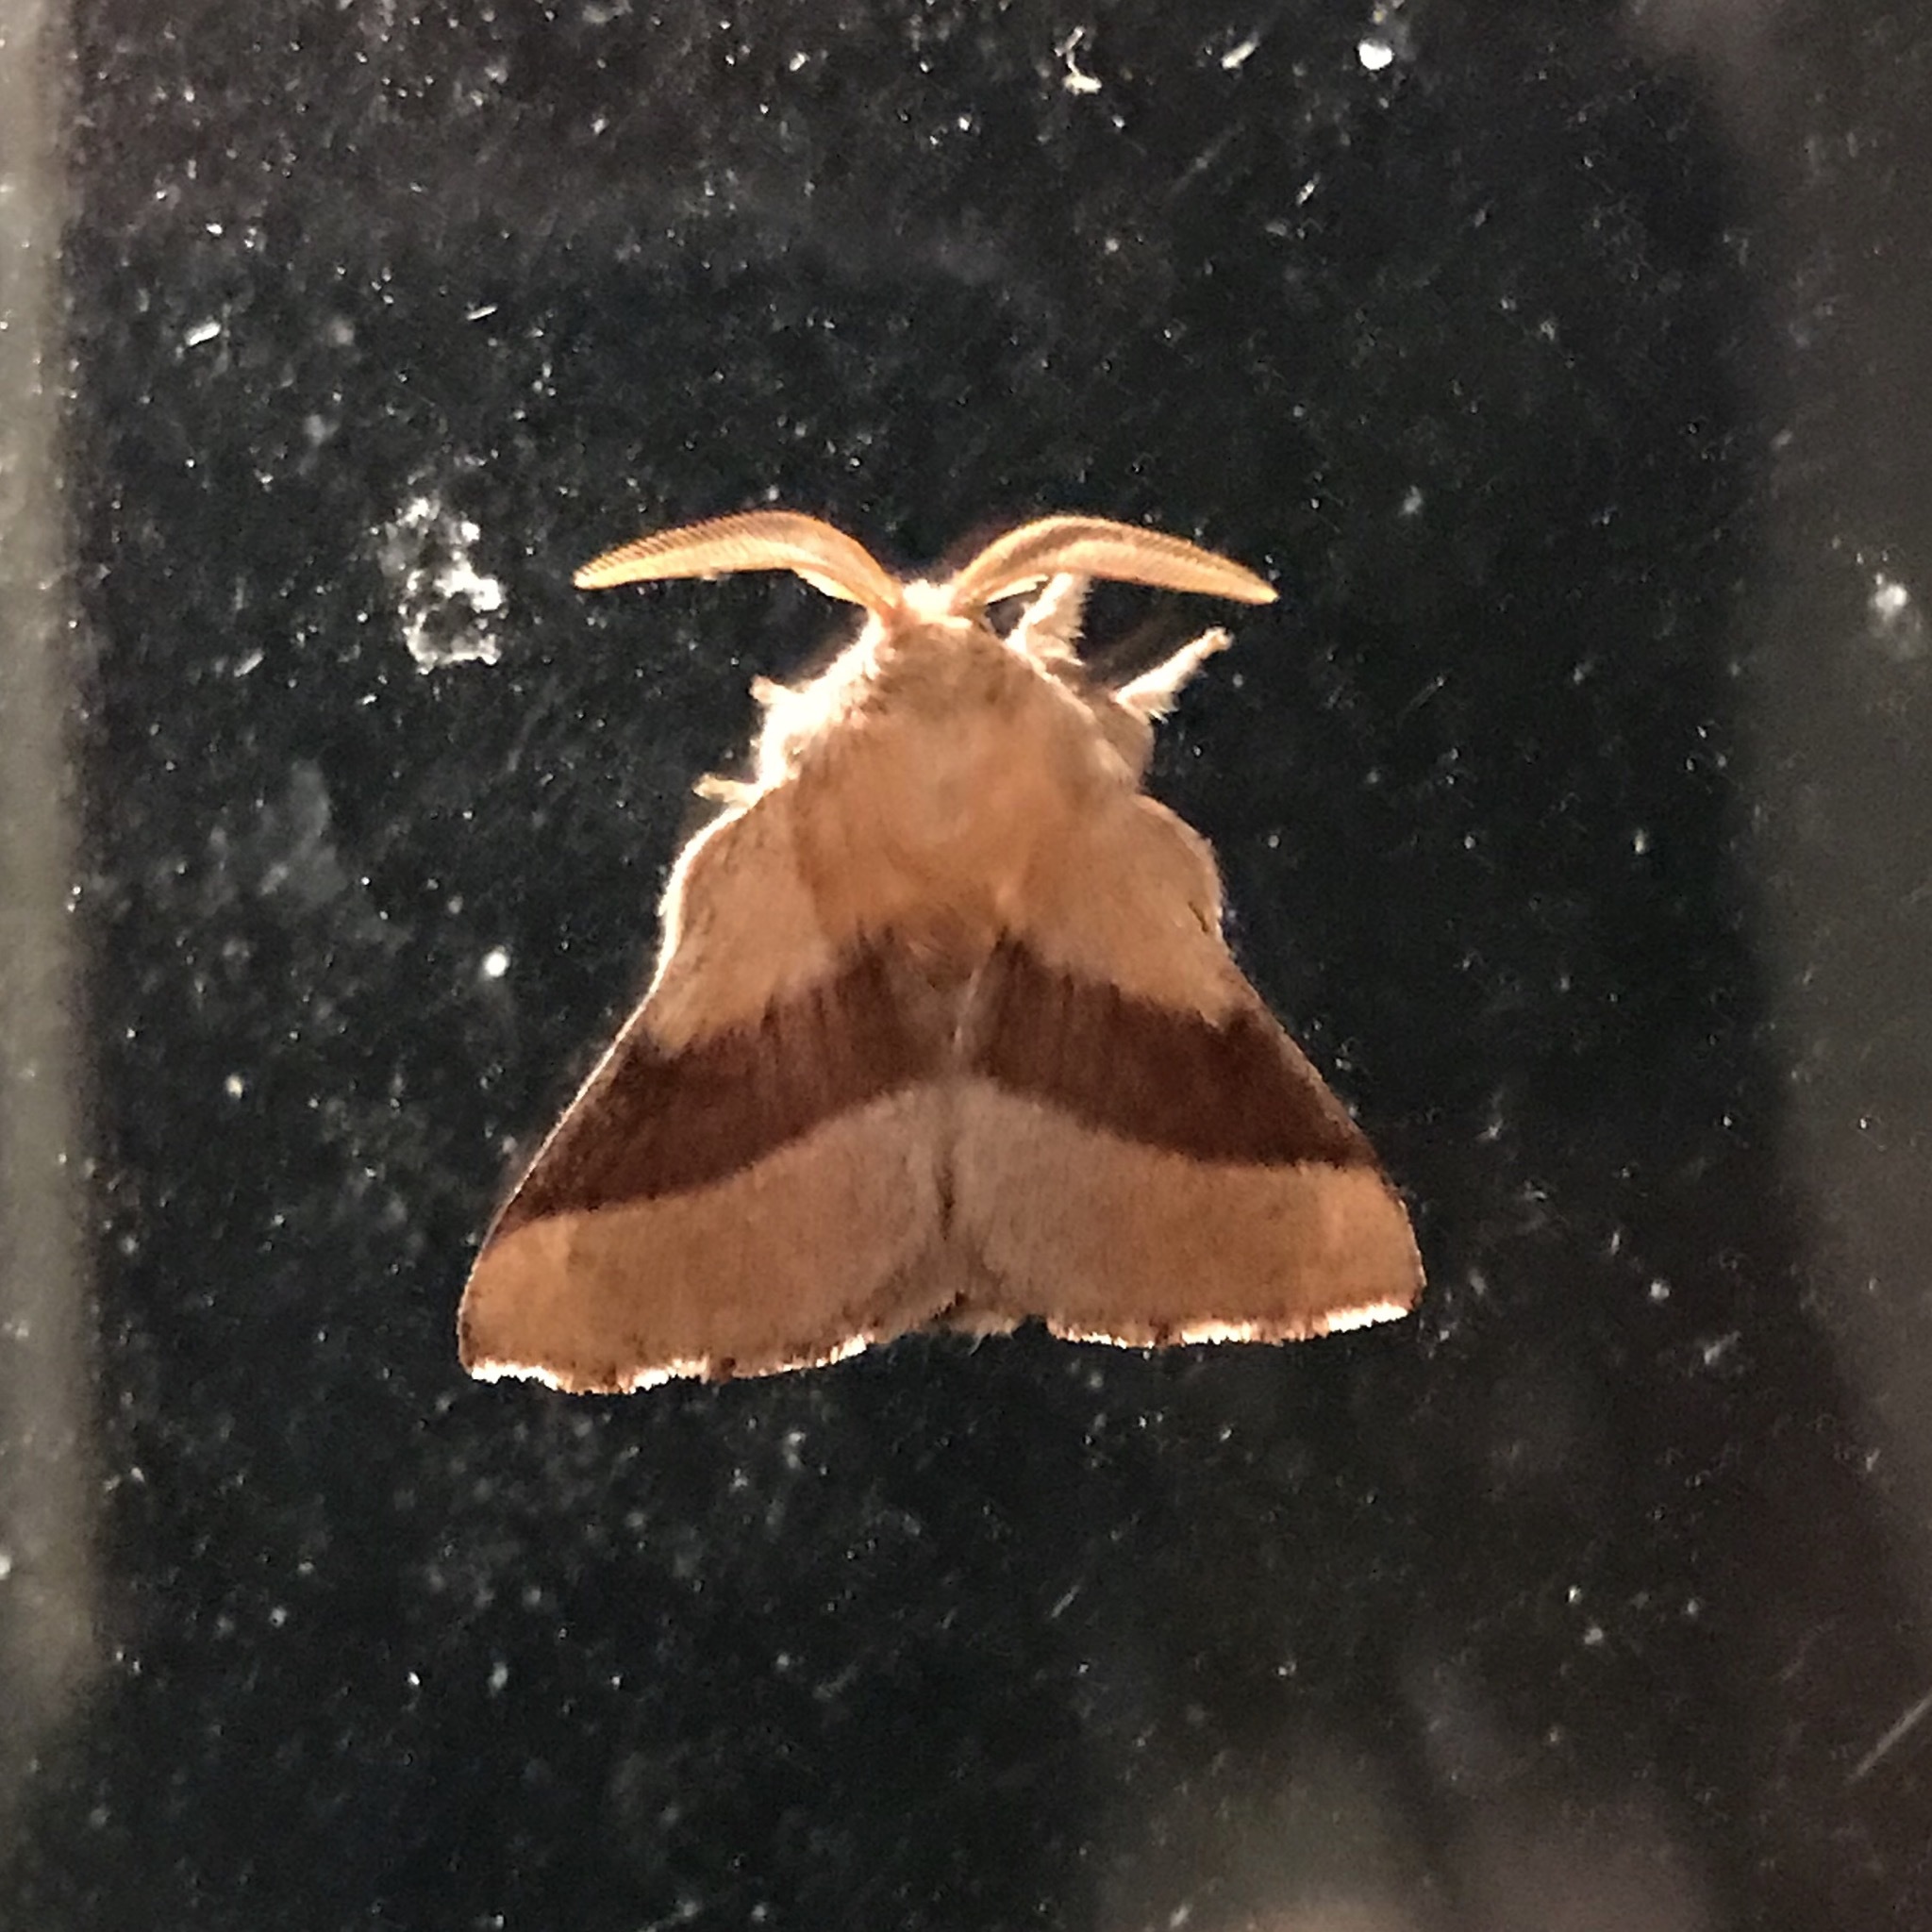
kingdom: Animalia
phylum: Arthropoda
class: Insecta
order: Lepidoptera
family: Lasiocampidae
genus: Malacosoma
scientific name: Malacosoma disstria
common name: Forest tent caterpillar
